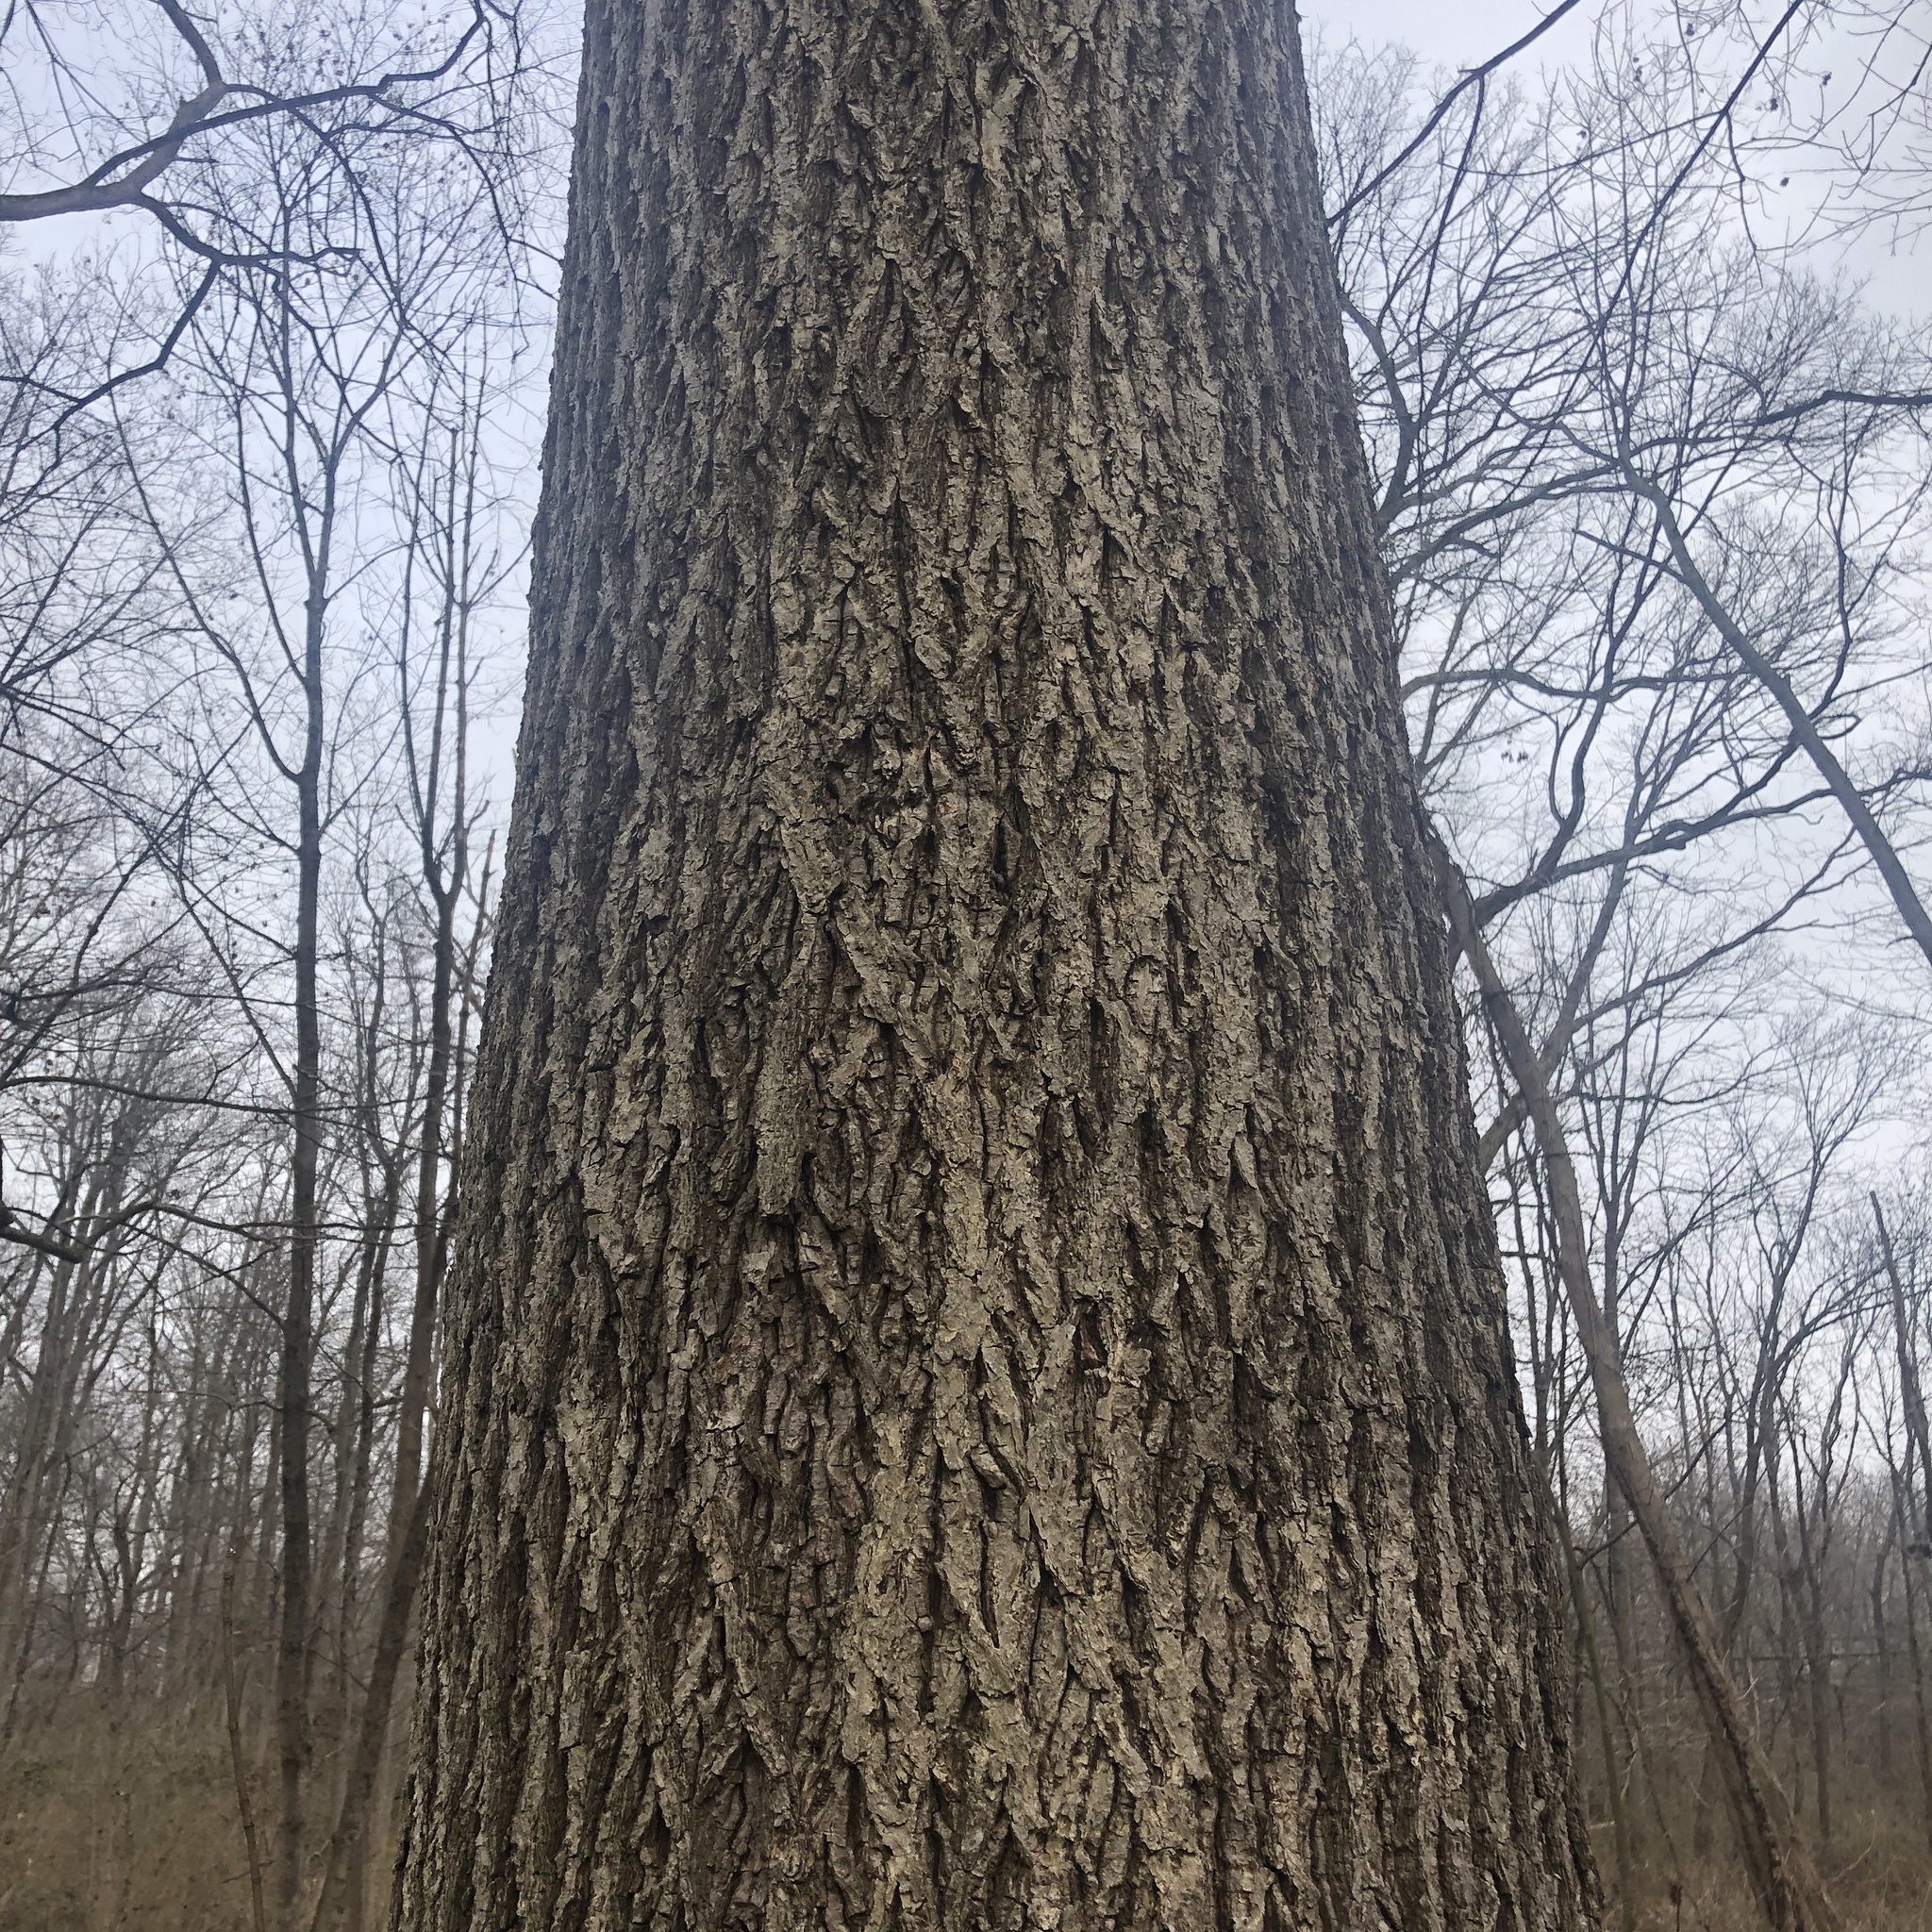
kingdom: Plantae
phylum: Tracheophyta
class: Magnoliopsida
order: Fagales
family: Juglandaceae
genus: Carya
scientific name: Carya cordiformis
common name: Bitternut hickory
